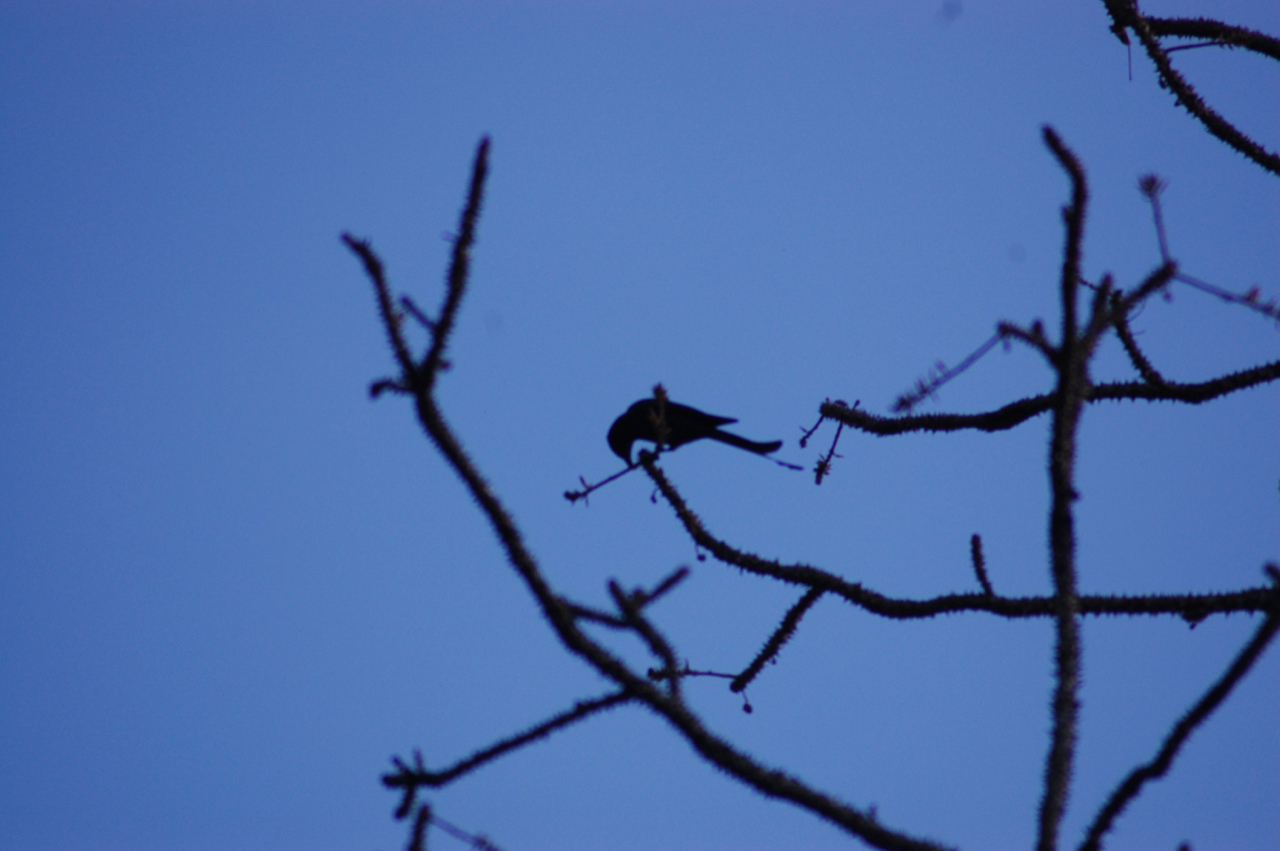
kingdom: Animalia
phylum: Chordata
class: Aves
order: Passeriformes
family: Dicruridae
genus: Dicrurus
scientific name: Dicrurus leucophaeus
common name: Ashy drongo
